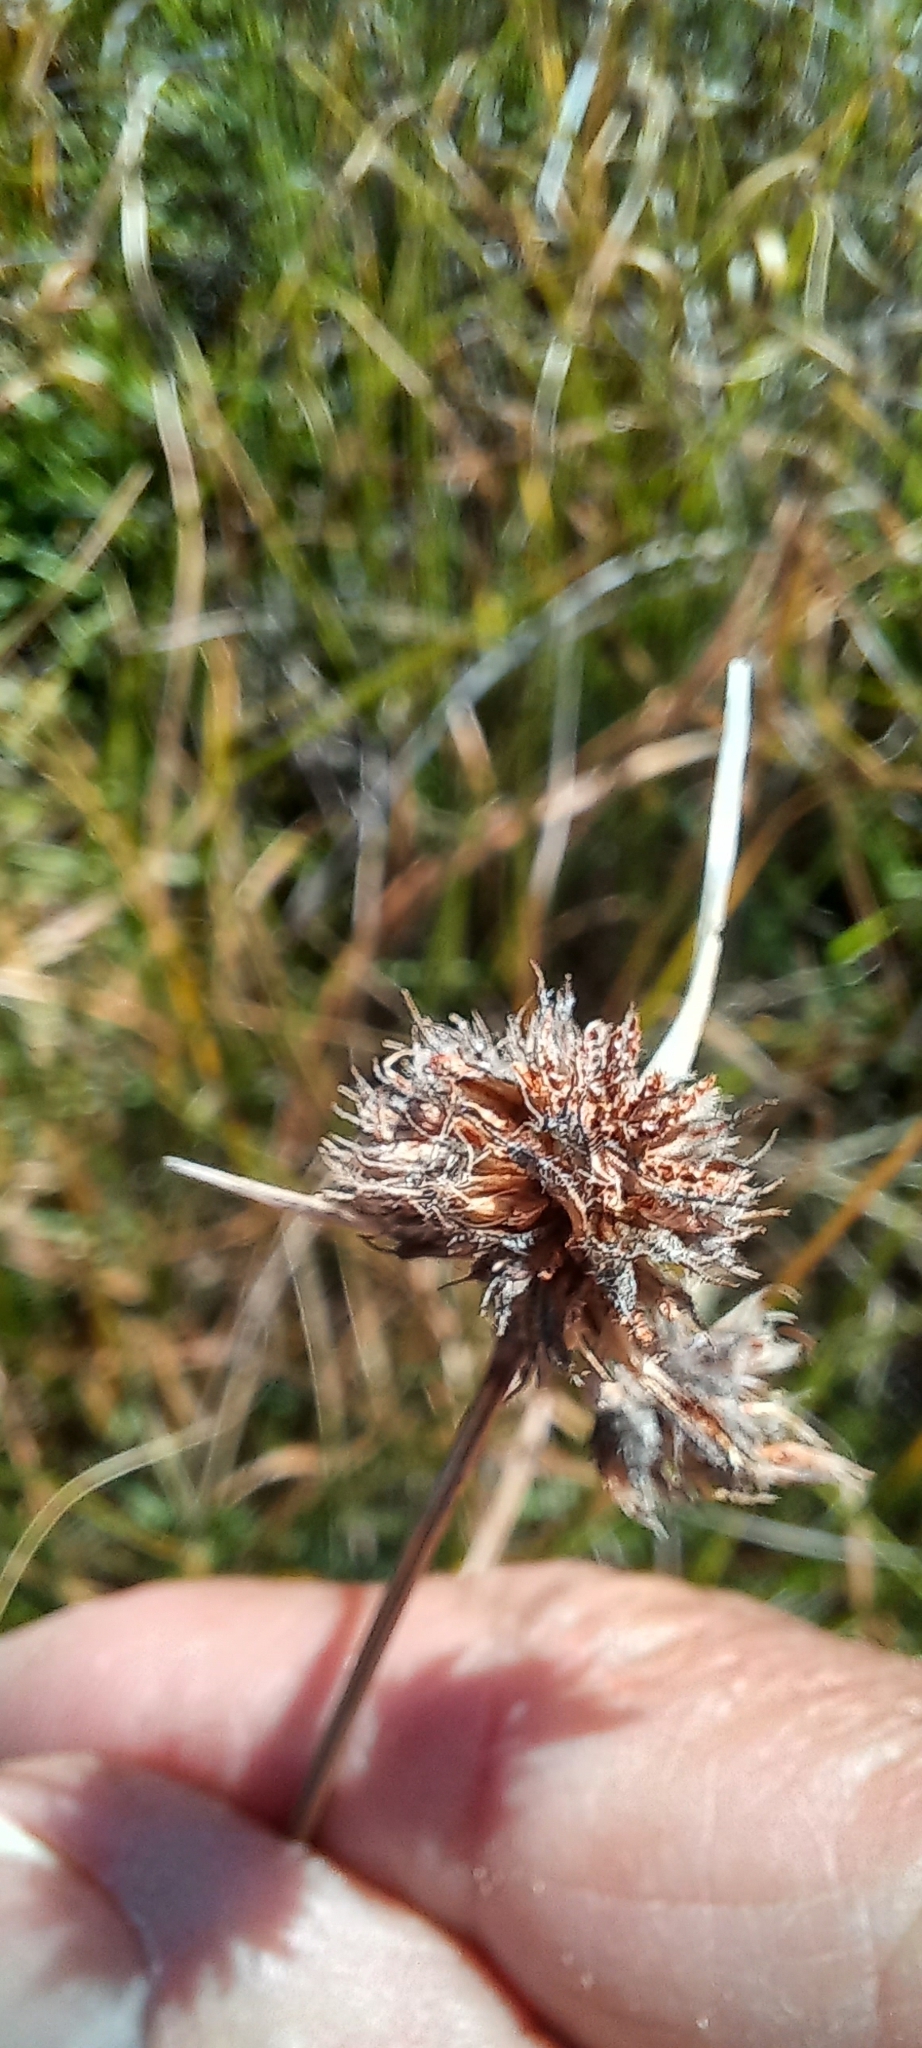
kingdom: Plantae
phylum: Tracheophyta
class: Liliopsida
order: Poales
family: Cyperaceae
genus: Fuirena
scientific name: Fuirena hirsuta
